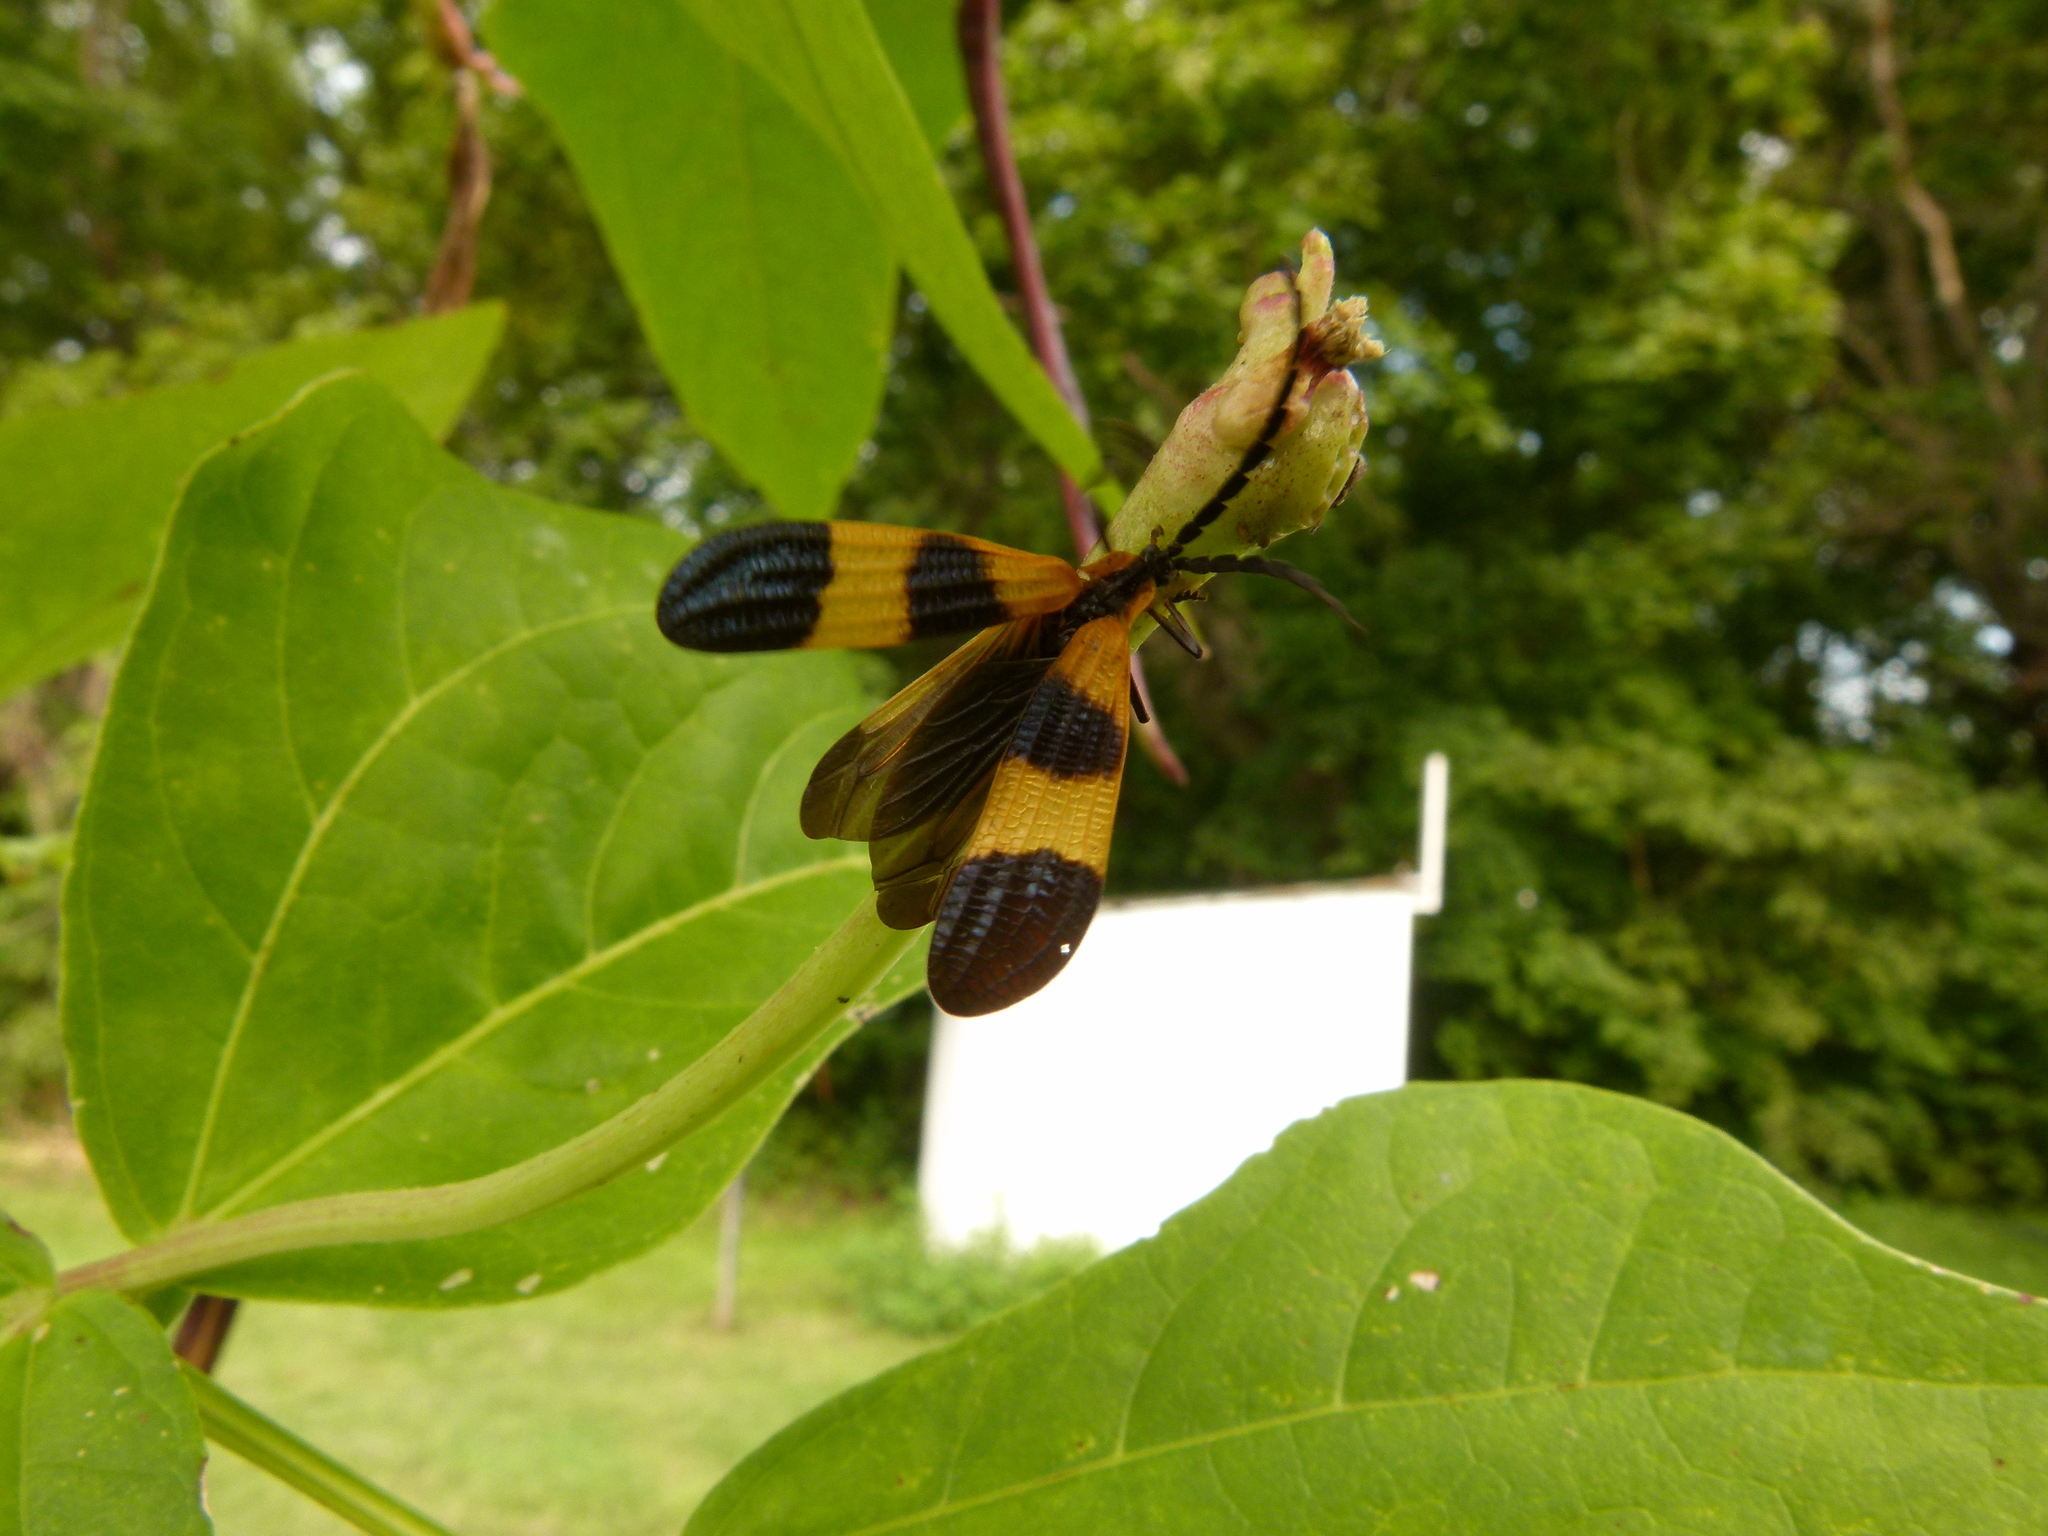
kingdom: Animalia
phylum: Arthropoda
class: Insecta
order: Coleoptera
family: Lycidae
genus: Calopteron
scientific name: Calopteron reticulatum
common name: Banded net-winged beetle
